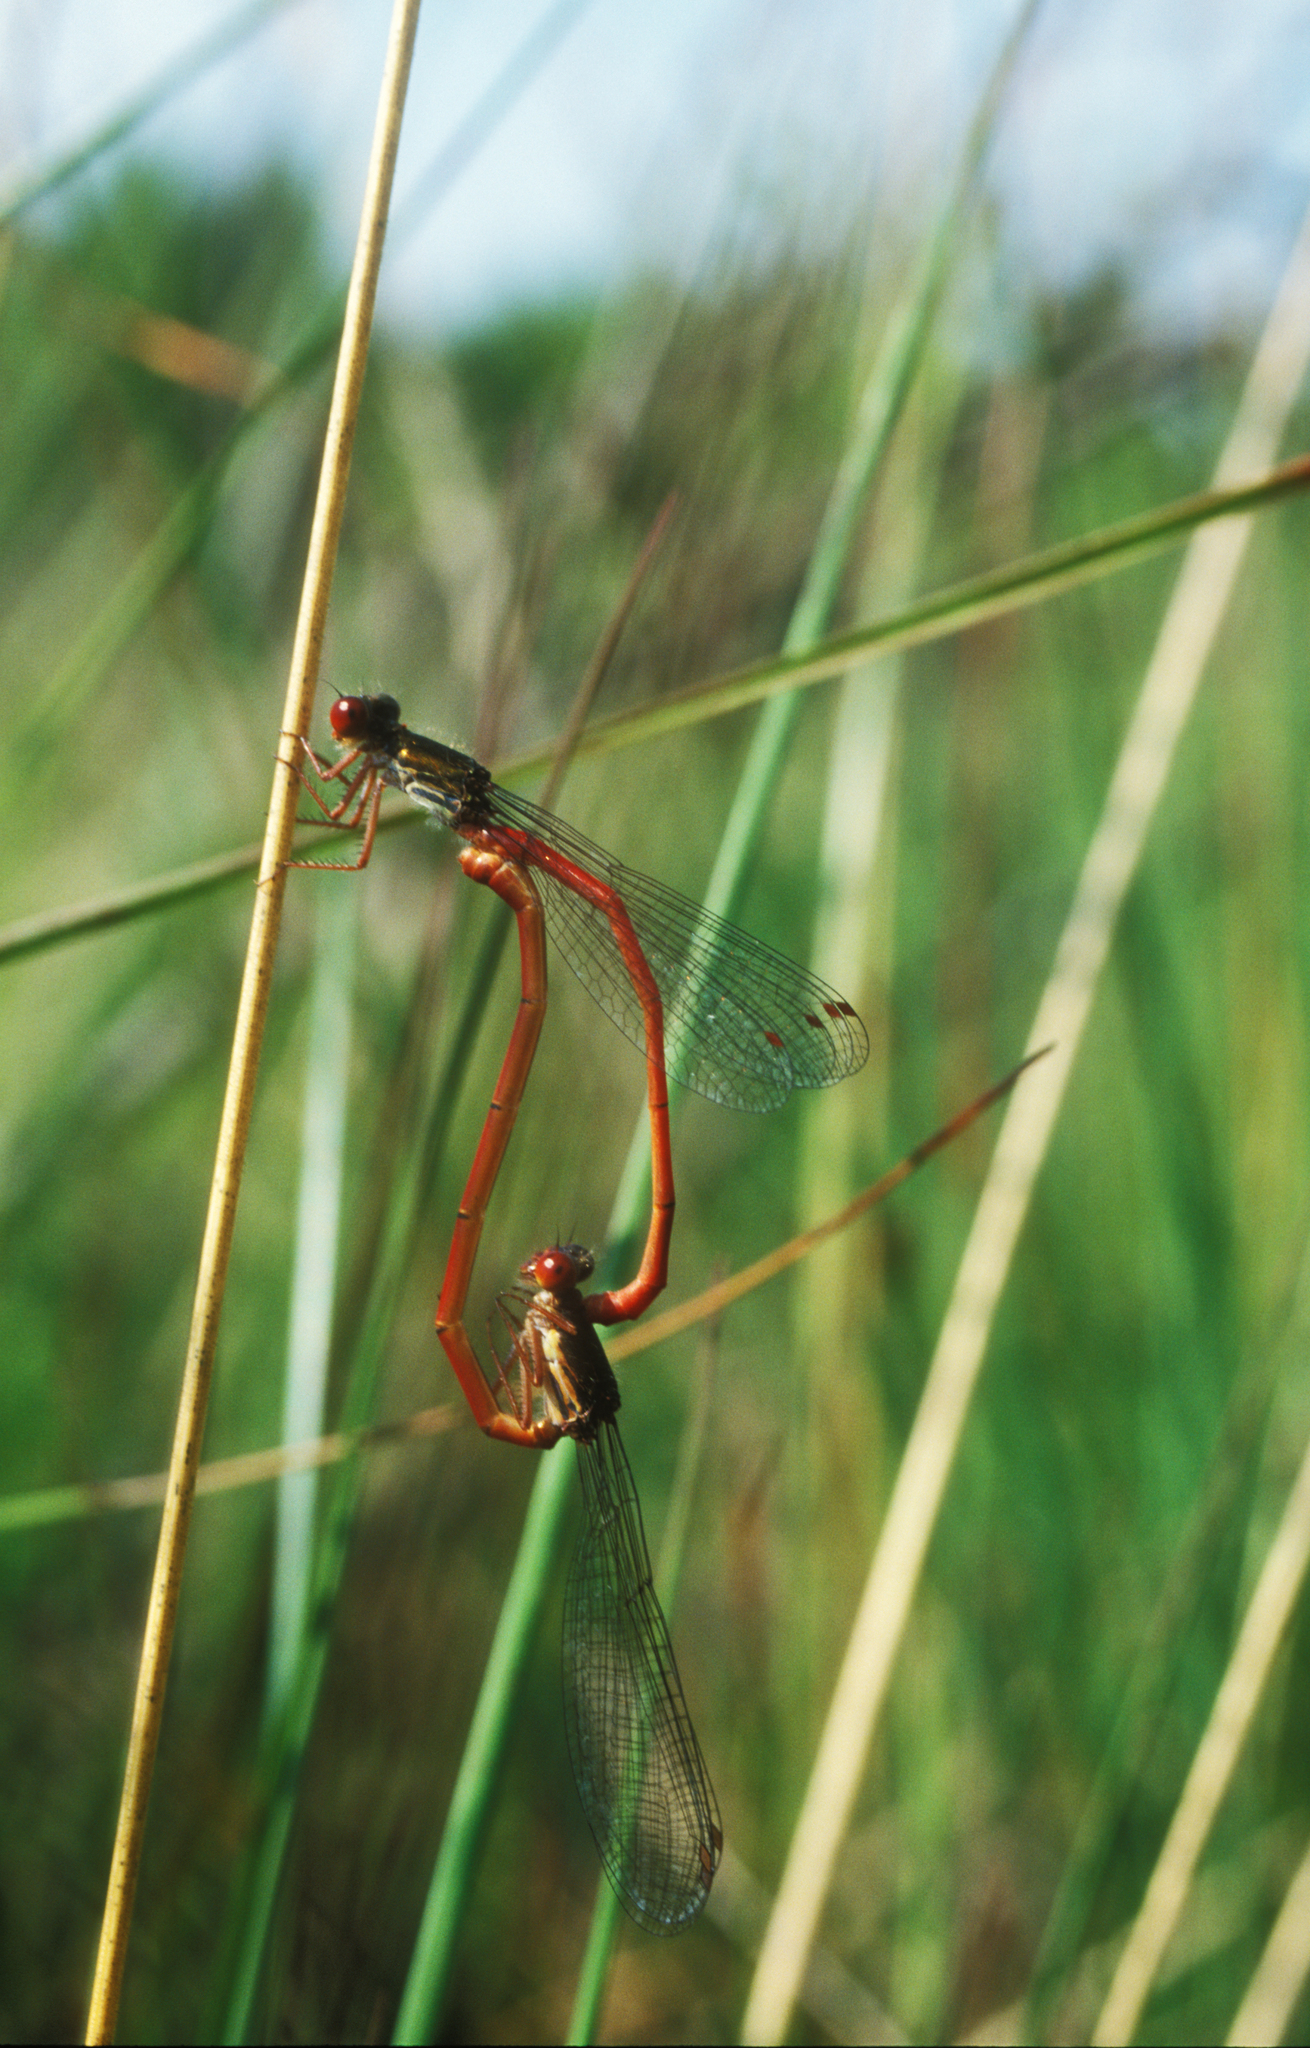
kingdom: Animalia
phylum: Arthropoda
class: Insecta
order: Odonata
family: Coenagrionidae
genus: Ceriagrion
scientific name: Ceriagrion tenellum
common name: Small red damselfly
